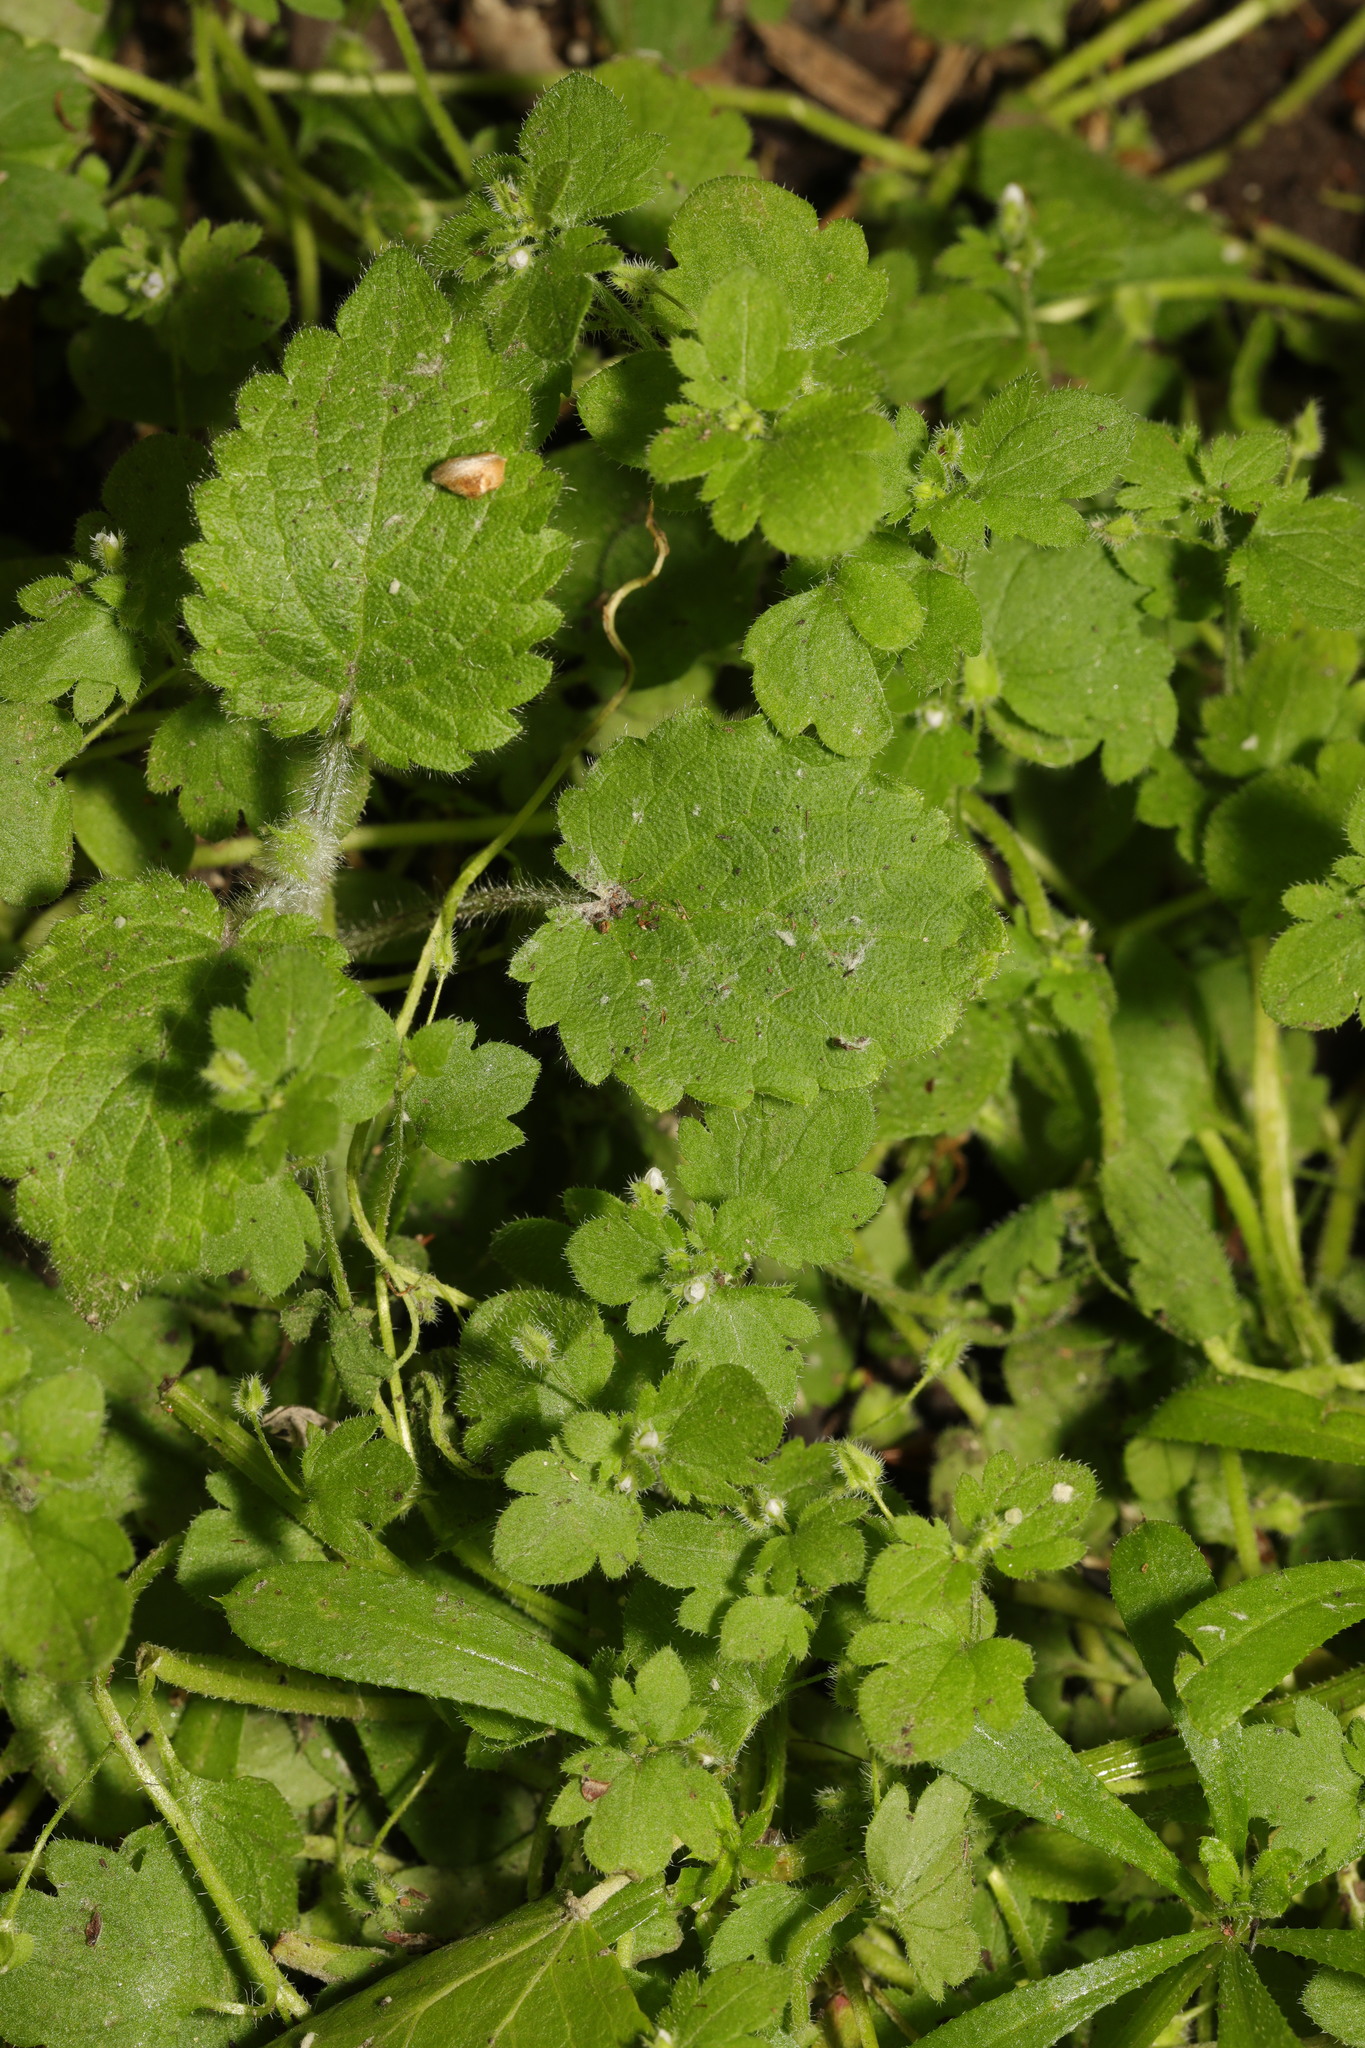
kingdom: Plantae
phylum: Tracheophyta
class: Magnoliopsida
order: Lamiales
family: Plantaginaceae
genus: Veronica
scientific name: Veronica sublobata
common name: False ivy-leaved speedwell
